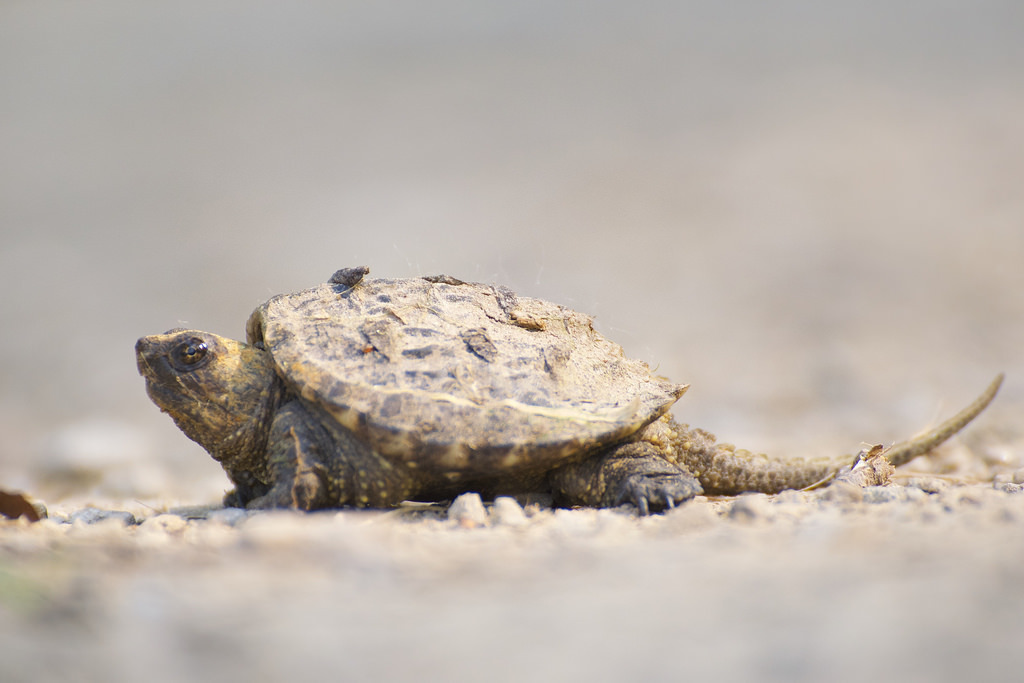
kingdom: Animalia
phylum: Chordata
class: Testudines
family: Chelydridae
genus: Chelydra
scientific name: Chelydra serpentina
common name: Common snapping turtle
